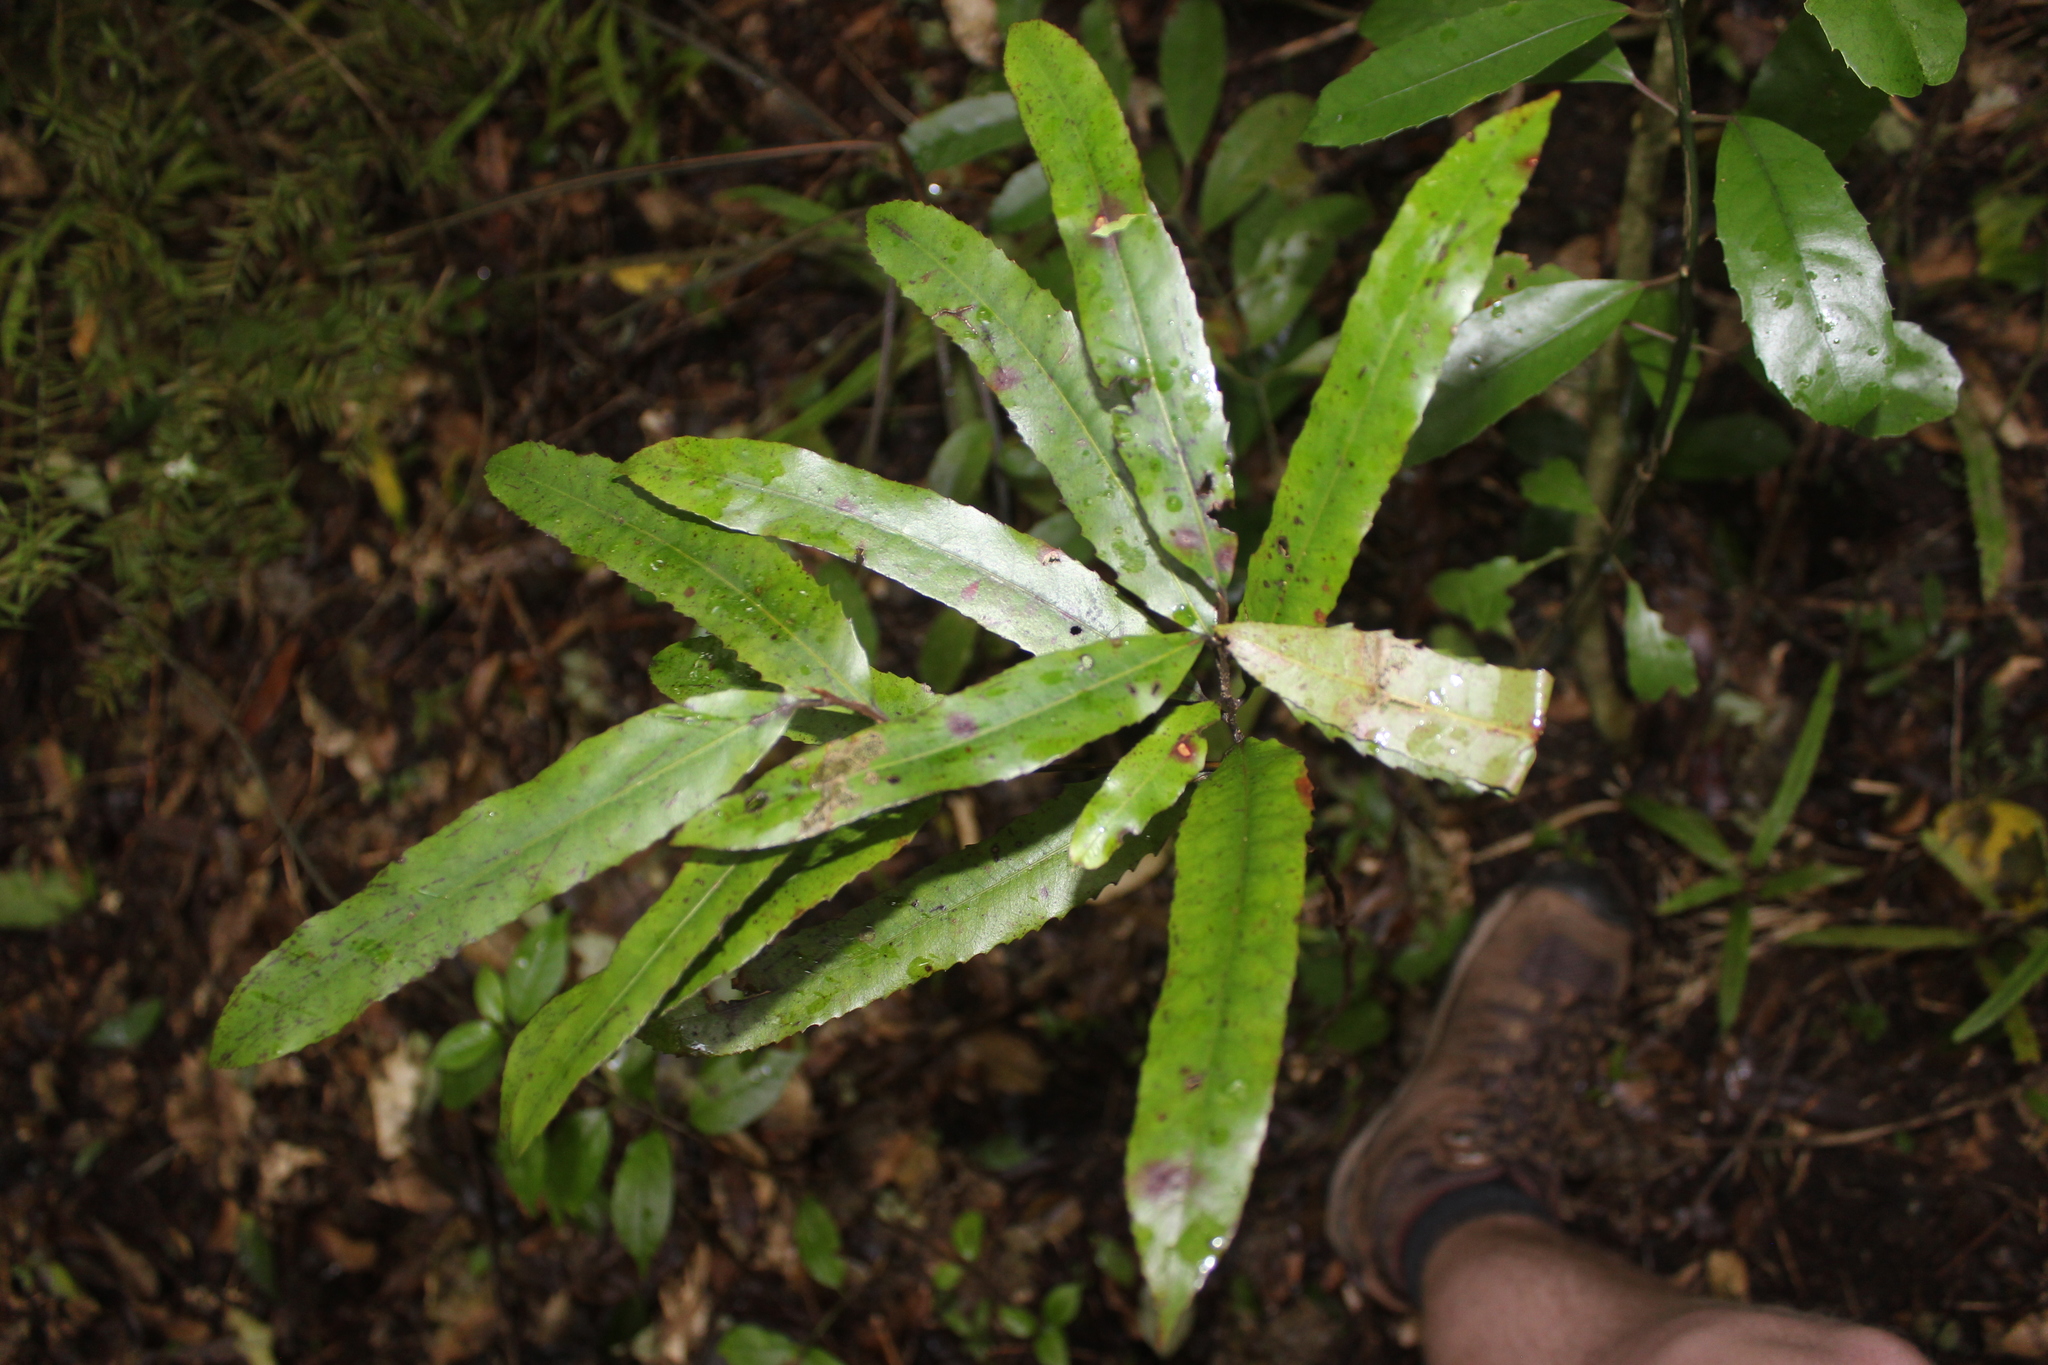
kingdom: Plantae
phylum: Tracheophyta
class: Magnoliopsida
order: Oxalidales
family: Elaeocarpaceae
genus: Elaeocarpus
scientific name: Elaeocarpus dentatus
